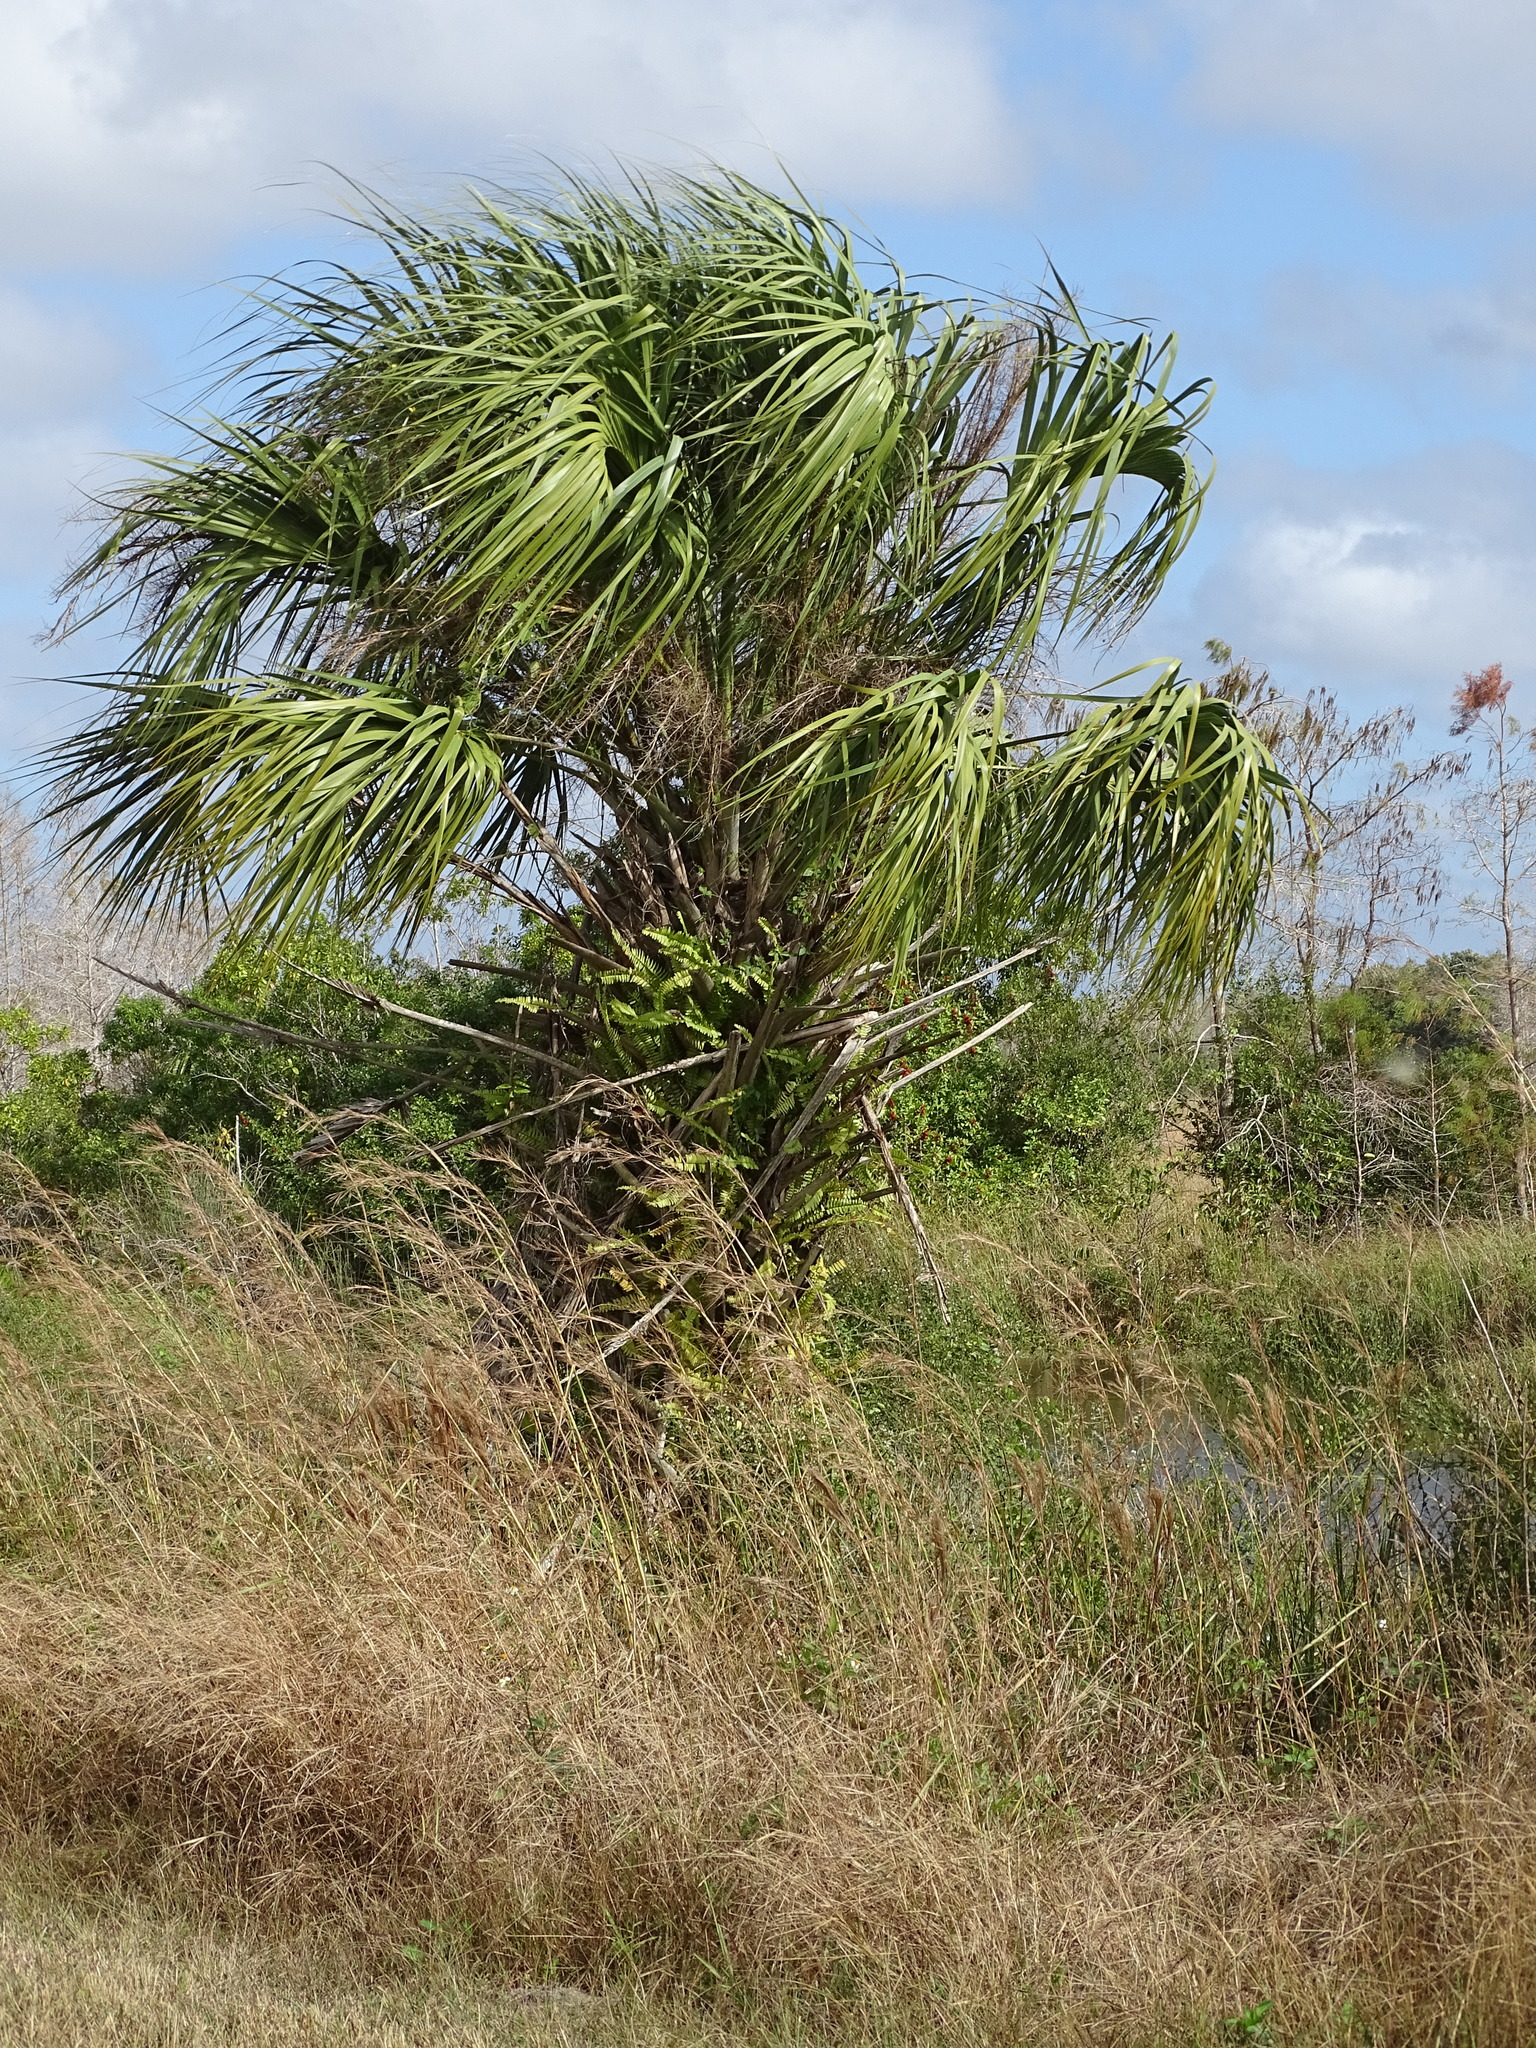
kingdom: Plantae
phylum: Tracheophyta
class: Liliopsida
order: Arecales
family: Arecaceae
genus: Sabal
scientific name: Sabal palmetto
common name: Blue palmetto
